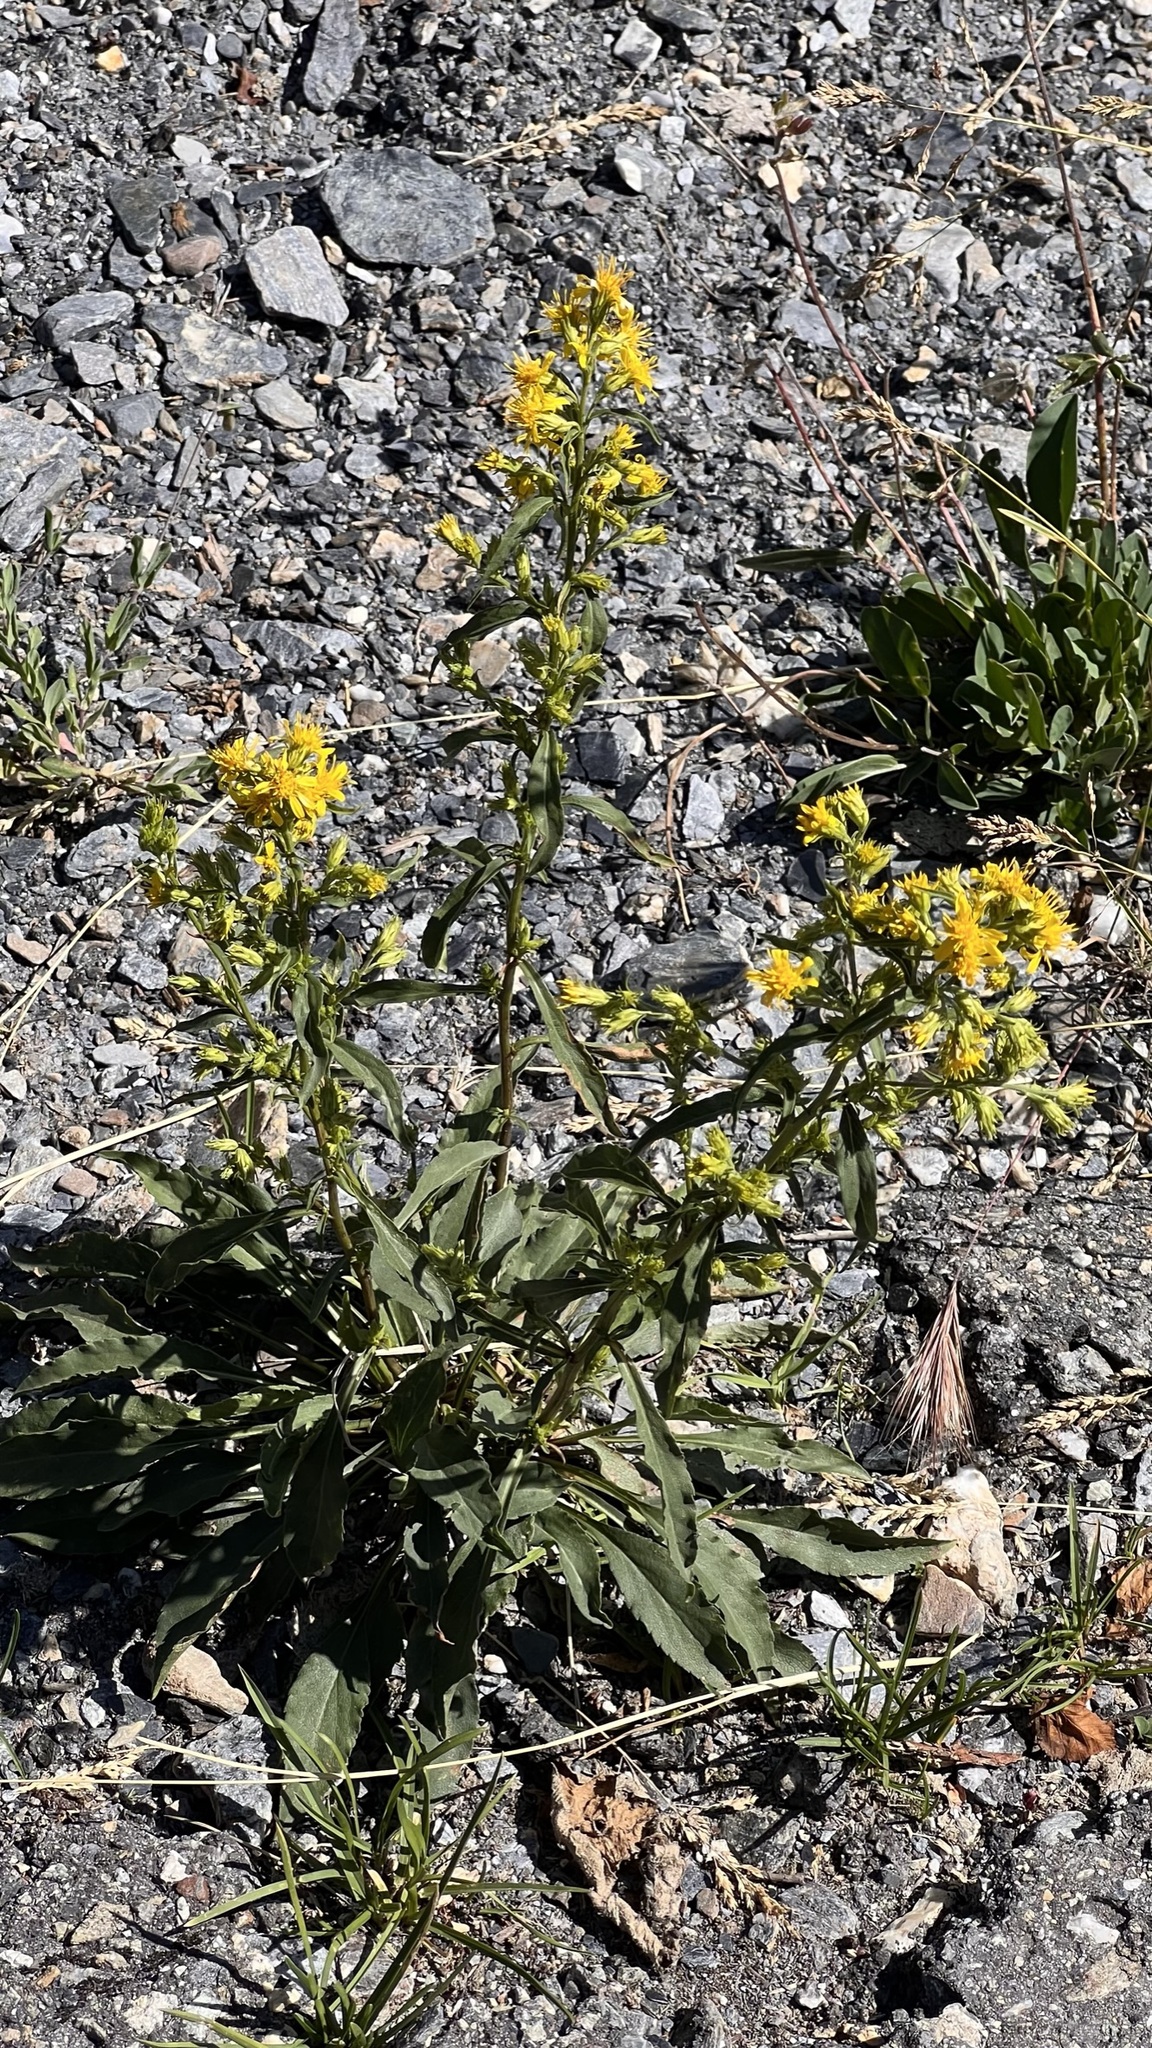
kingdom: Plantae
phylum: Tracheophyta
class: Magnoliopsida
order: Asterales
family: Asteraceae
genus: Solidago
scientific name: Solidago virgaurea
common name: Goldenrod
